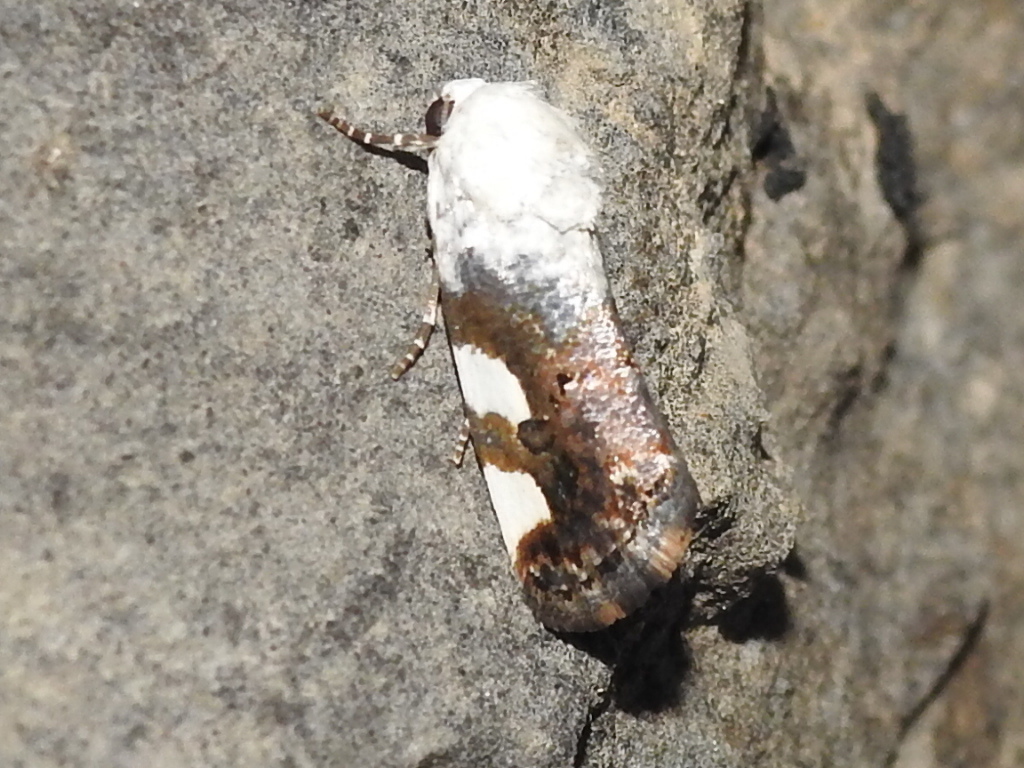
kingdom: Animalia
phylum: Arthropoda
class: Insecta
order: Lepidoptera
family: Noctuidae
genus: Acontia
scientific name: Acontia quadriplaga
